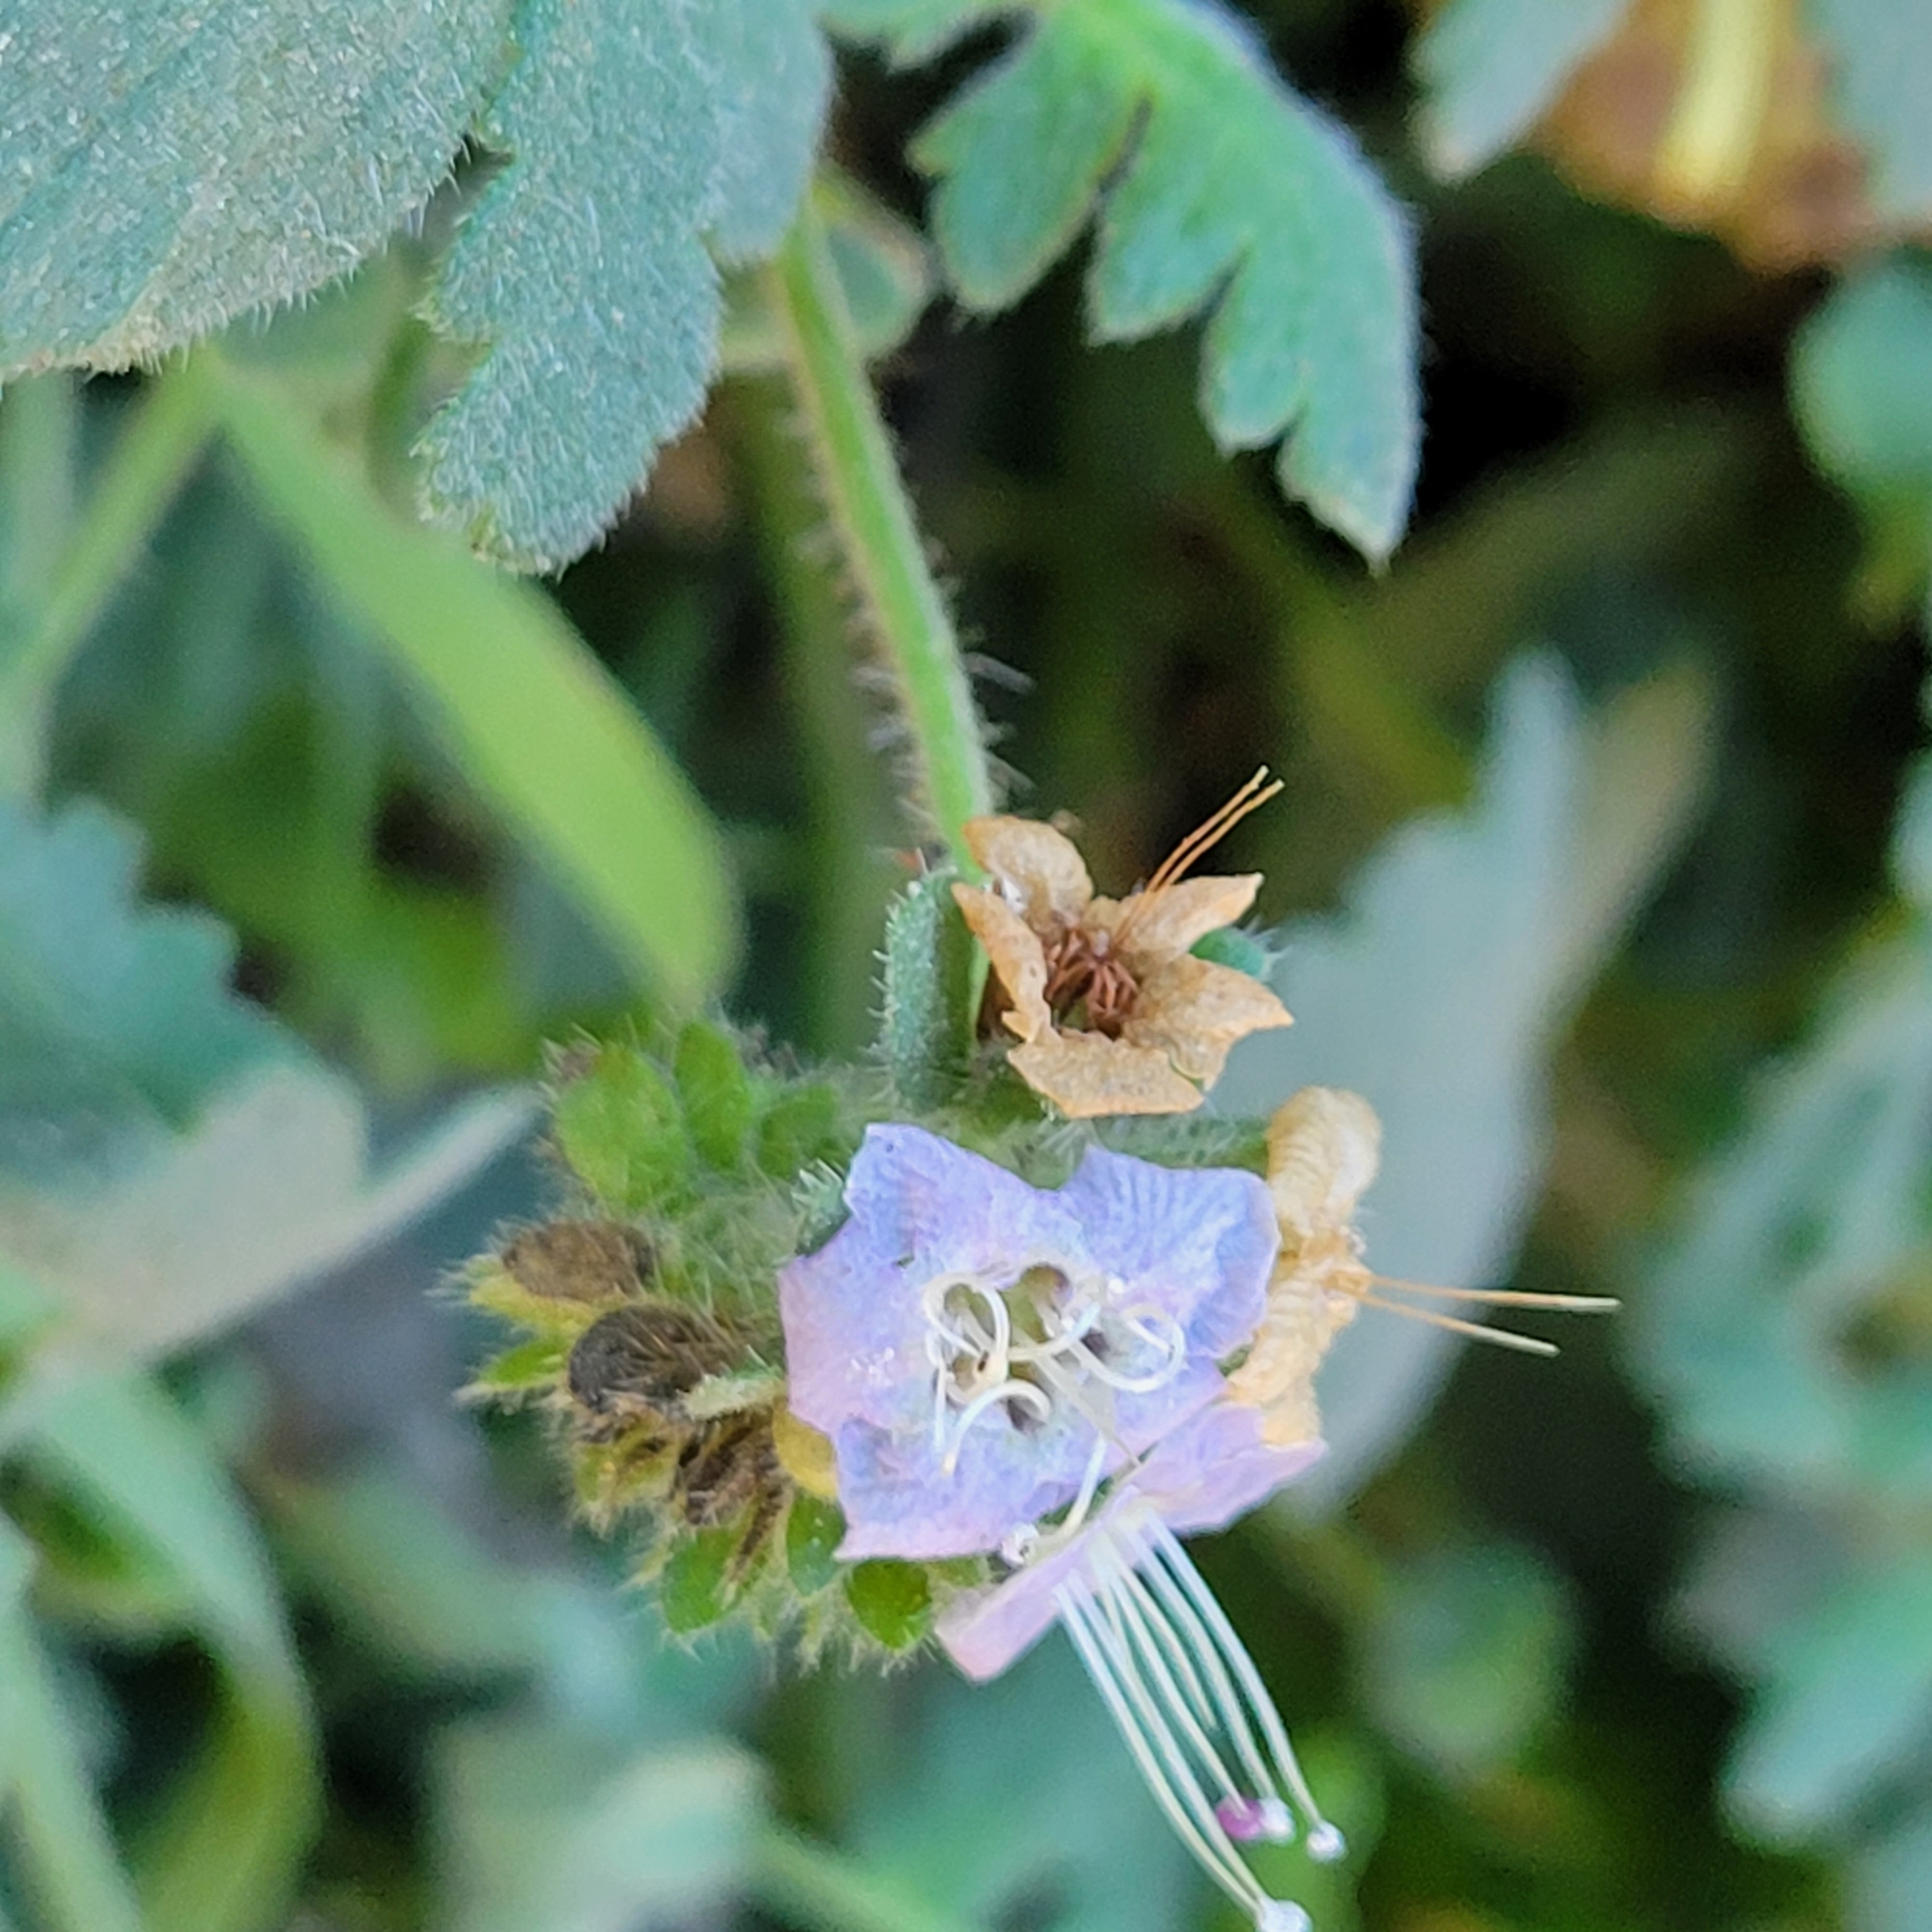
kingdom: Plantae
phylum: Tracheophyta
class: Magnoliopsida
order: Boraginales
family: Hydrophyllaceae
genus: Phacelia
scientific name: Phacelia ramosissima
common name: Branching phacelia
